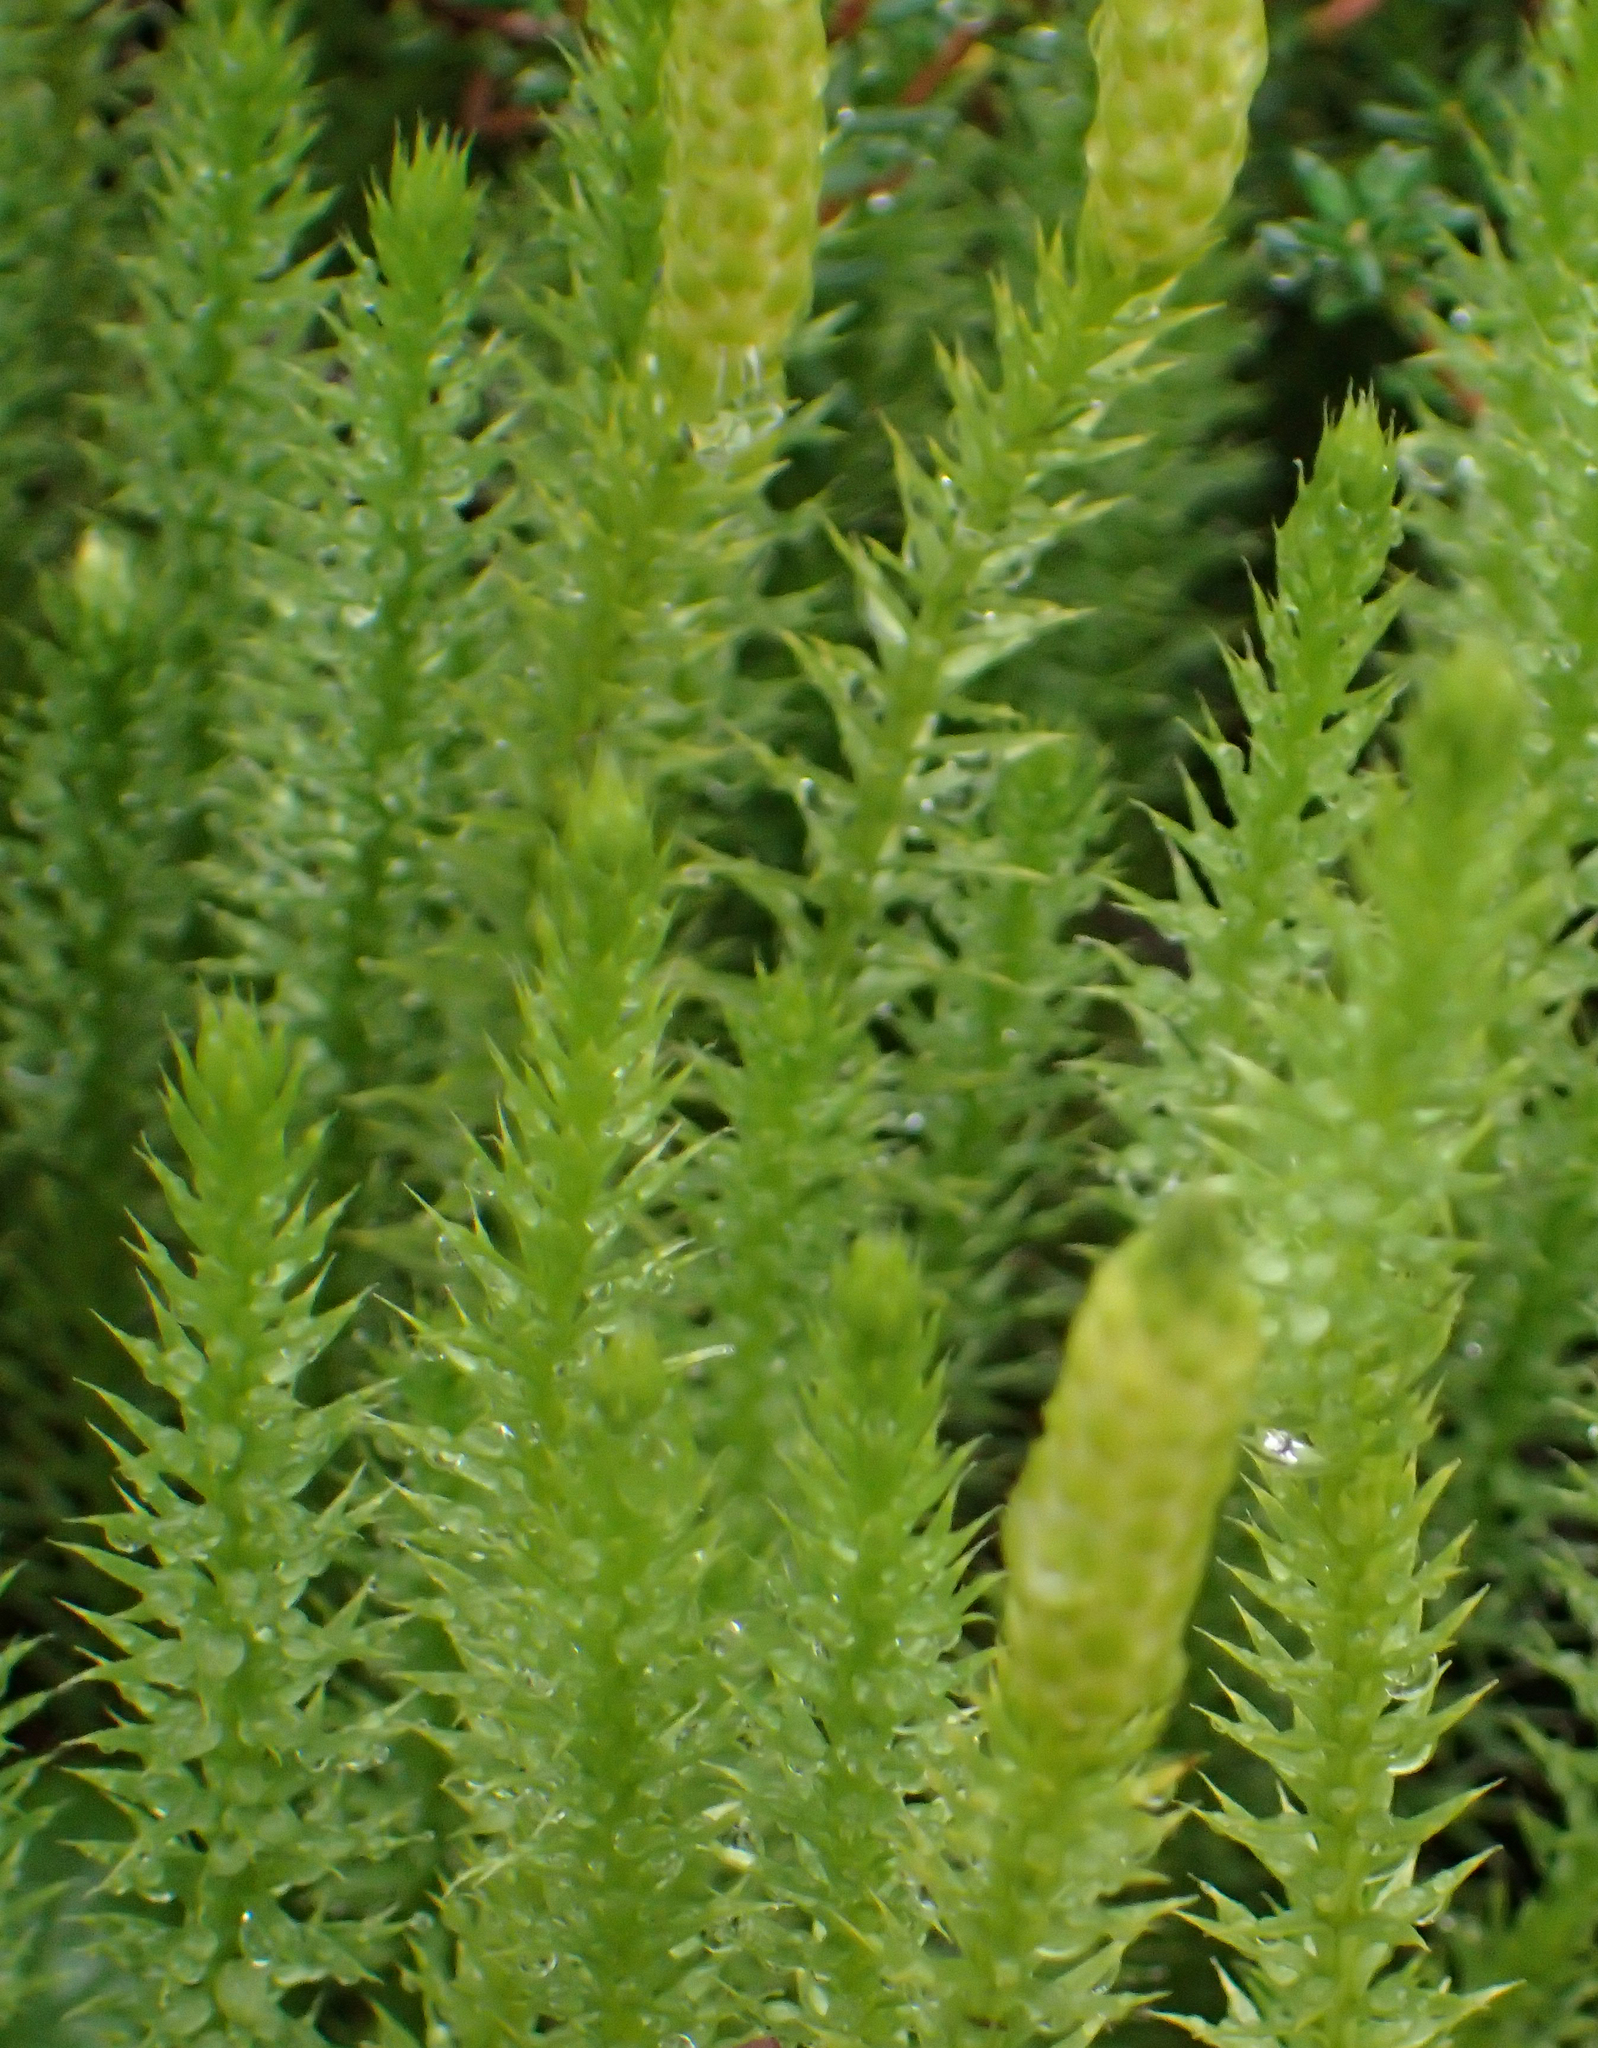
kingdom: Plantae
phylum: Tracheophyta
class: Lycopodiopsida
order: Lycopodiales
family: Lycopodiaceae
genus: Spinulum
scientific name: Spinulum annotinum
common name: Interrupted club-moss
